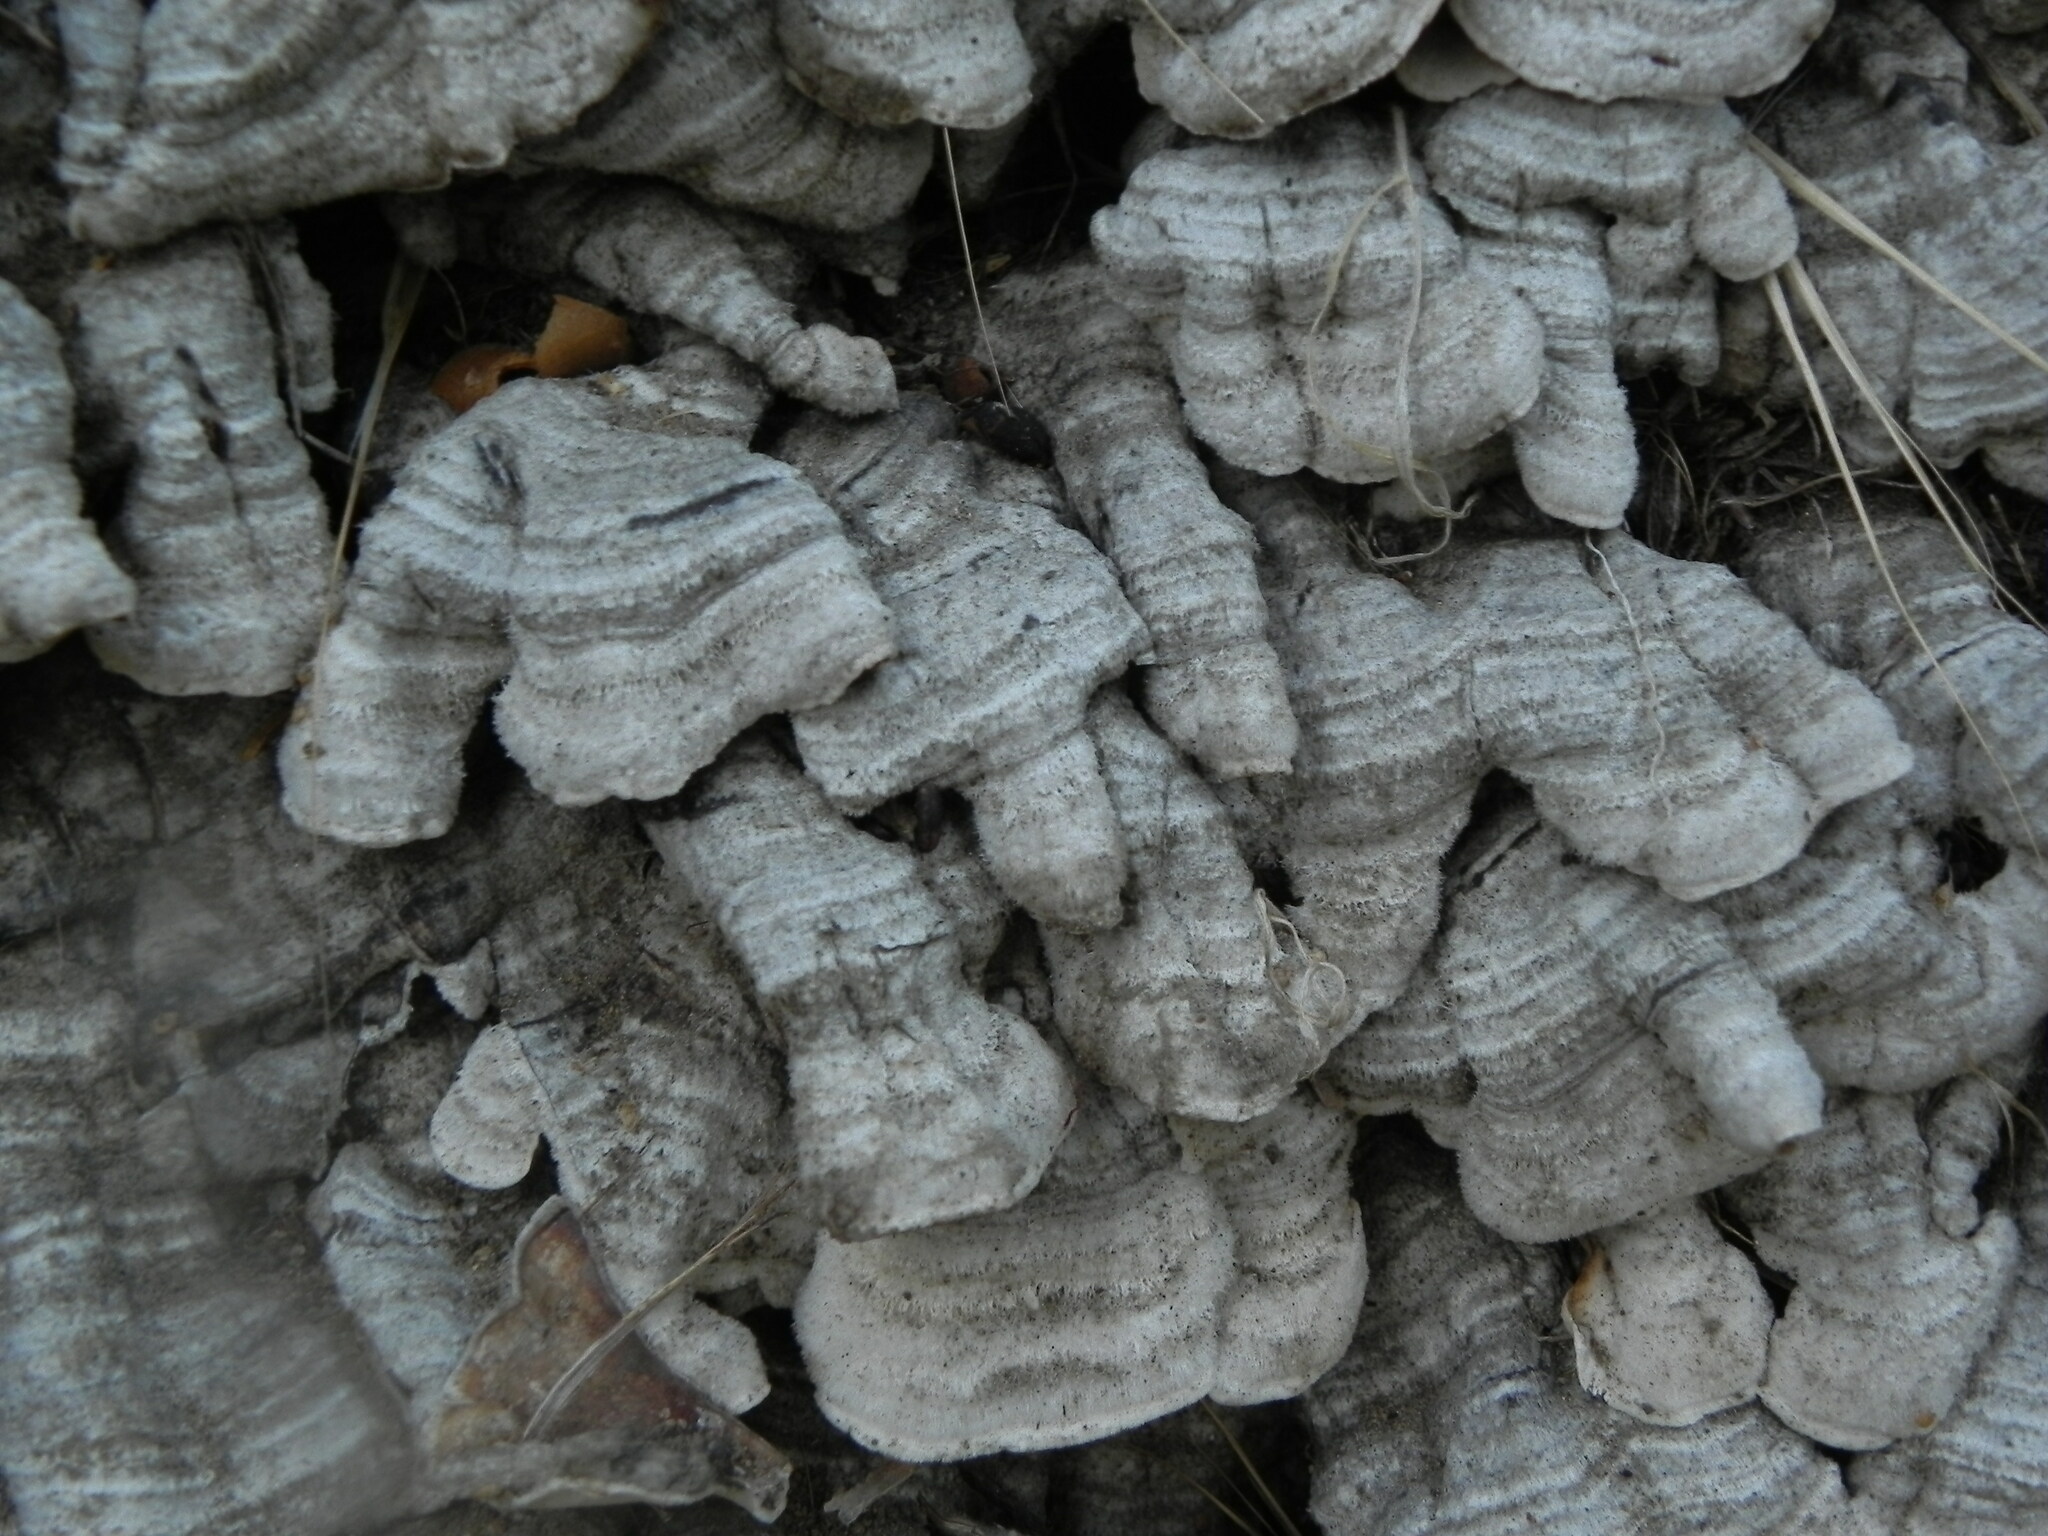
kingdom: Fungi
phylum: Basidiomycota
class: Agaricomycetes
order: Russulales
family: Stereaceae
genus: Stereum
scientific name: Stereum hirsutum
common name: Hairy curtain crust
